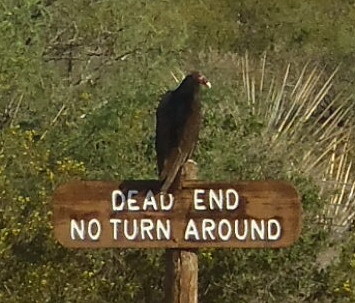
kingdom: Animalia
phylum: Chordata
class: Aves
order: Accipitriformes
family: Cathartidae
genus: Cathartes
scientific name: Cathartes aura
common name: Turkey vulture
